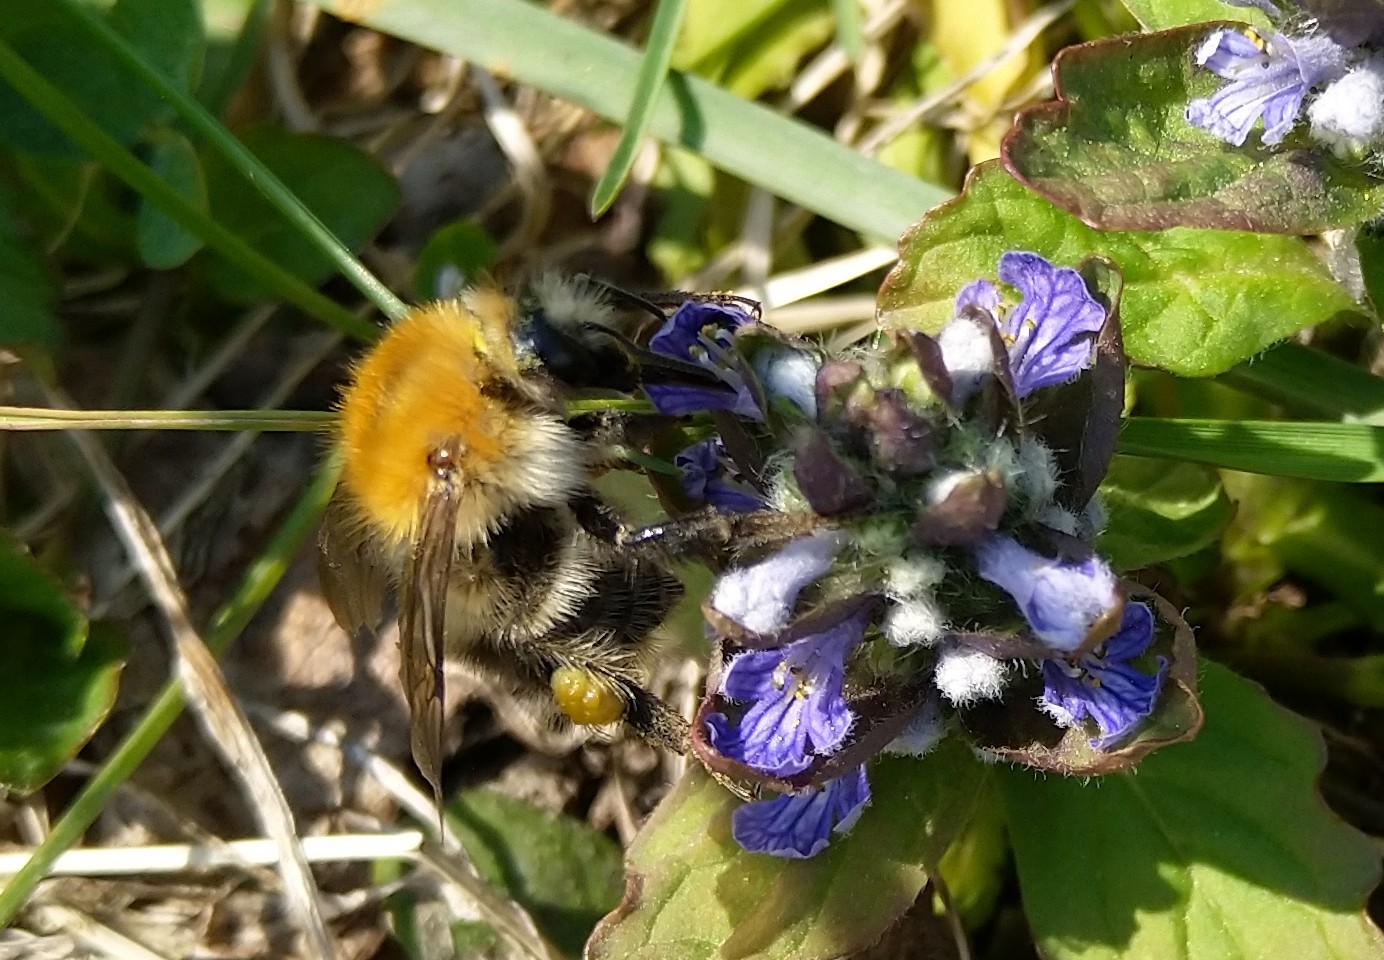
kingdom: Animalia
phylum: Arthropoda
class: Insecta
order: Hymenoptera
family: Apidae
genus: Bombus
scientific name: Bombus pascuorum
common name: Common carder bee
